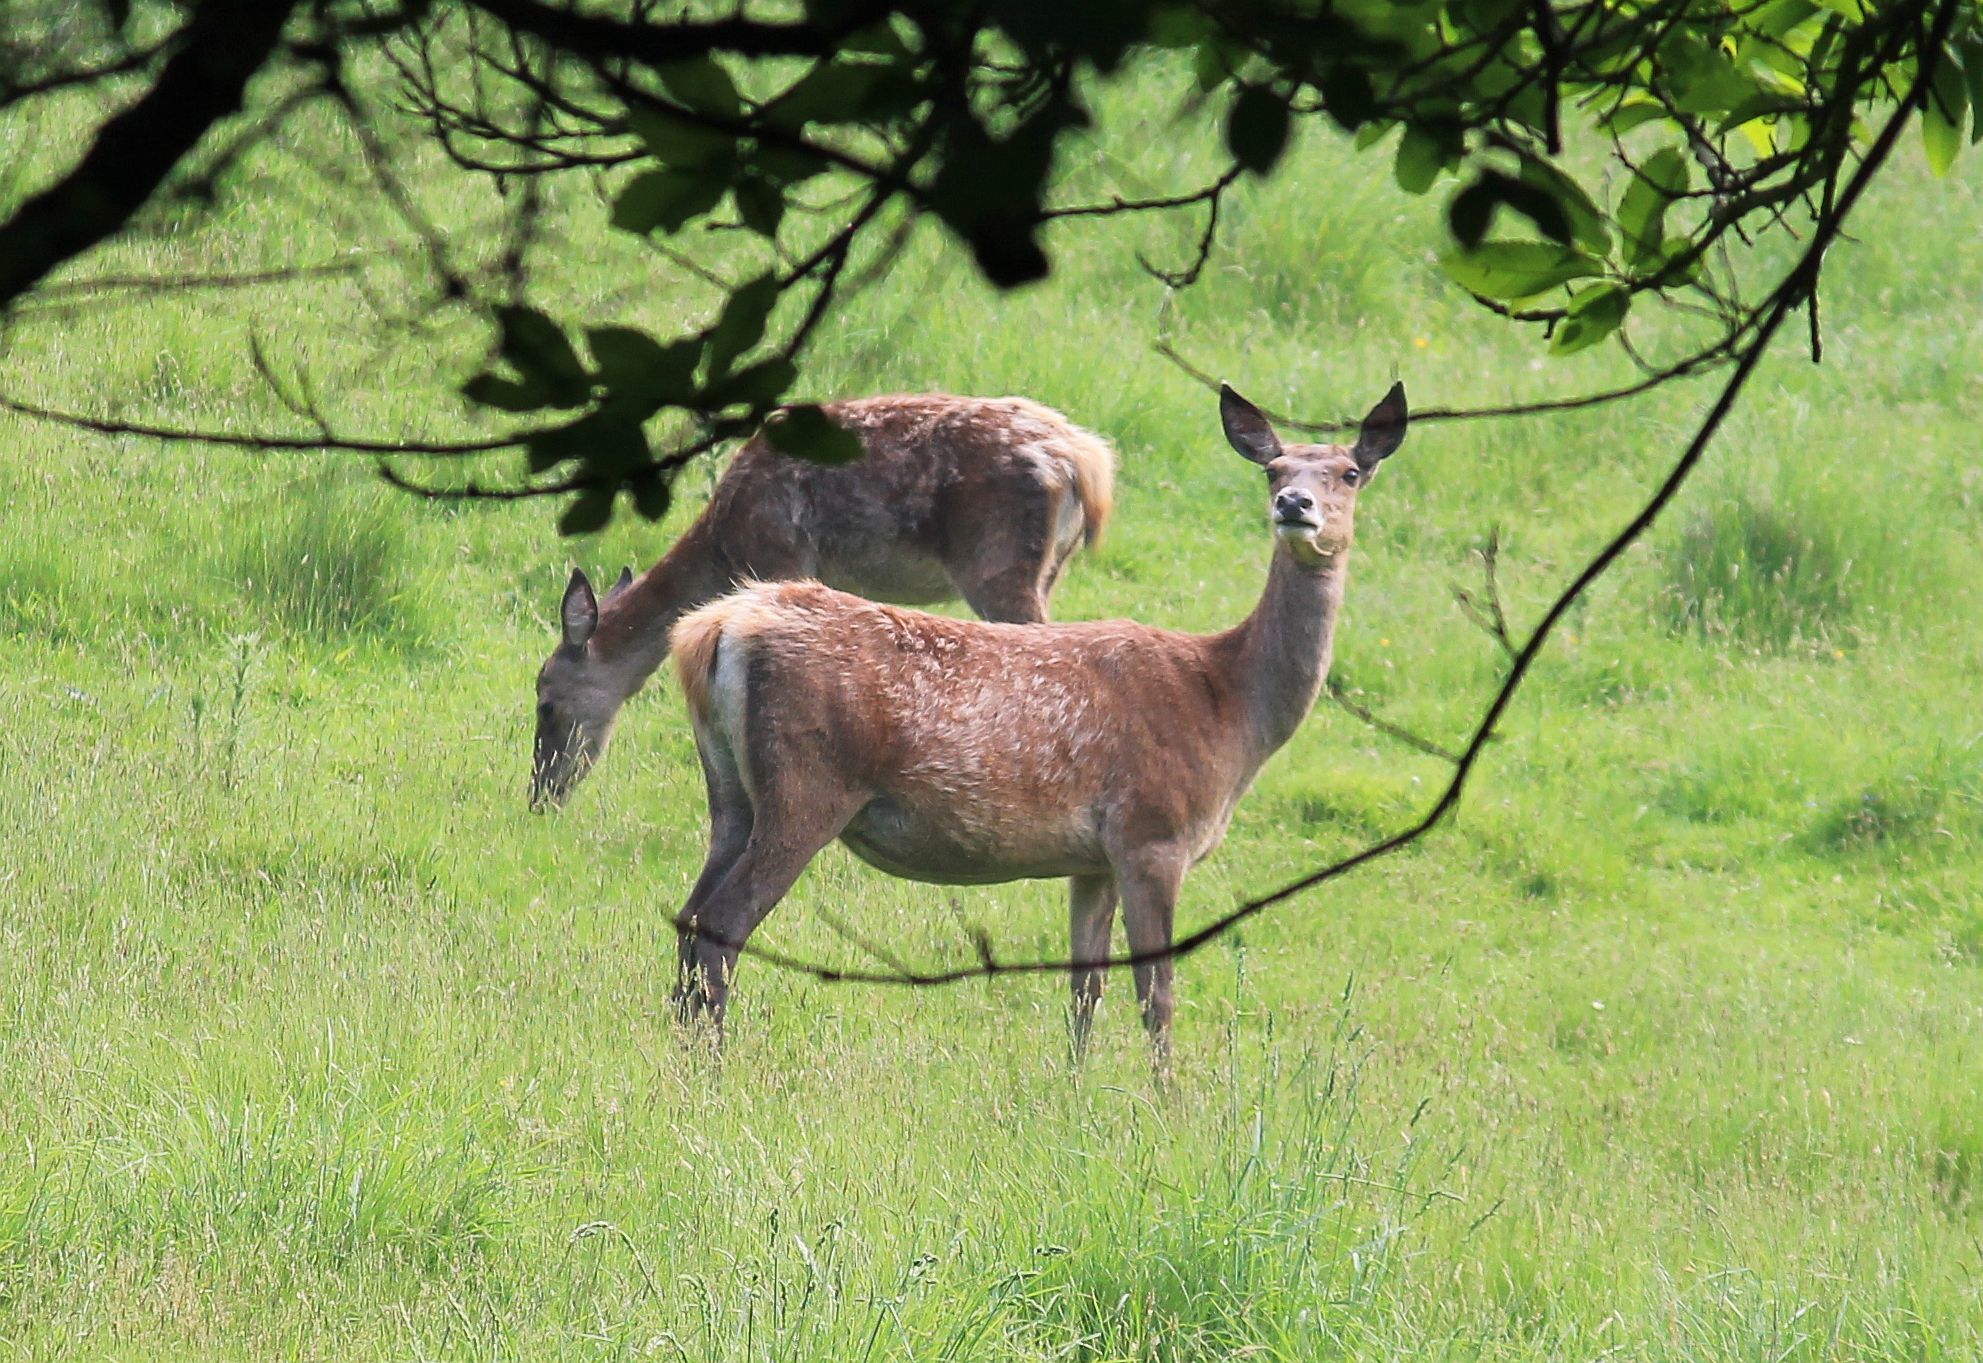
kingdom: Animalia
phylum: Chordata
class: Mammalia
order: Artiodactyla
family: Cervidae
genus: Cervus
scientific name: Cervus elaphus
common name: Red deer
